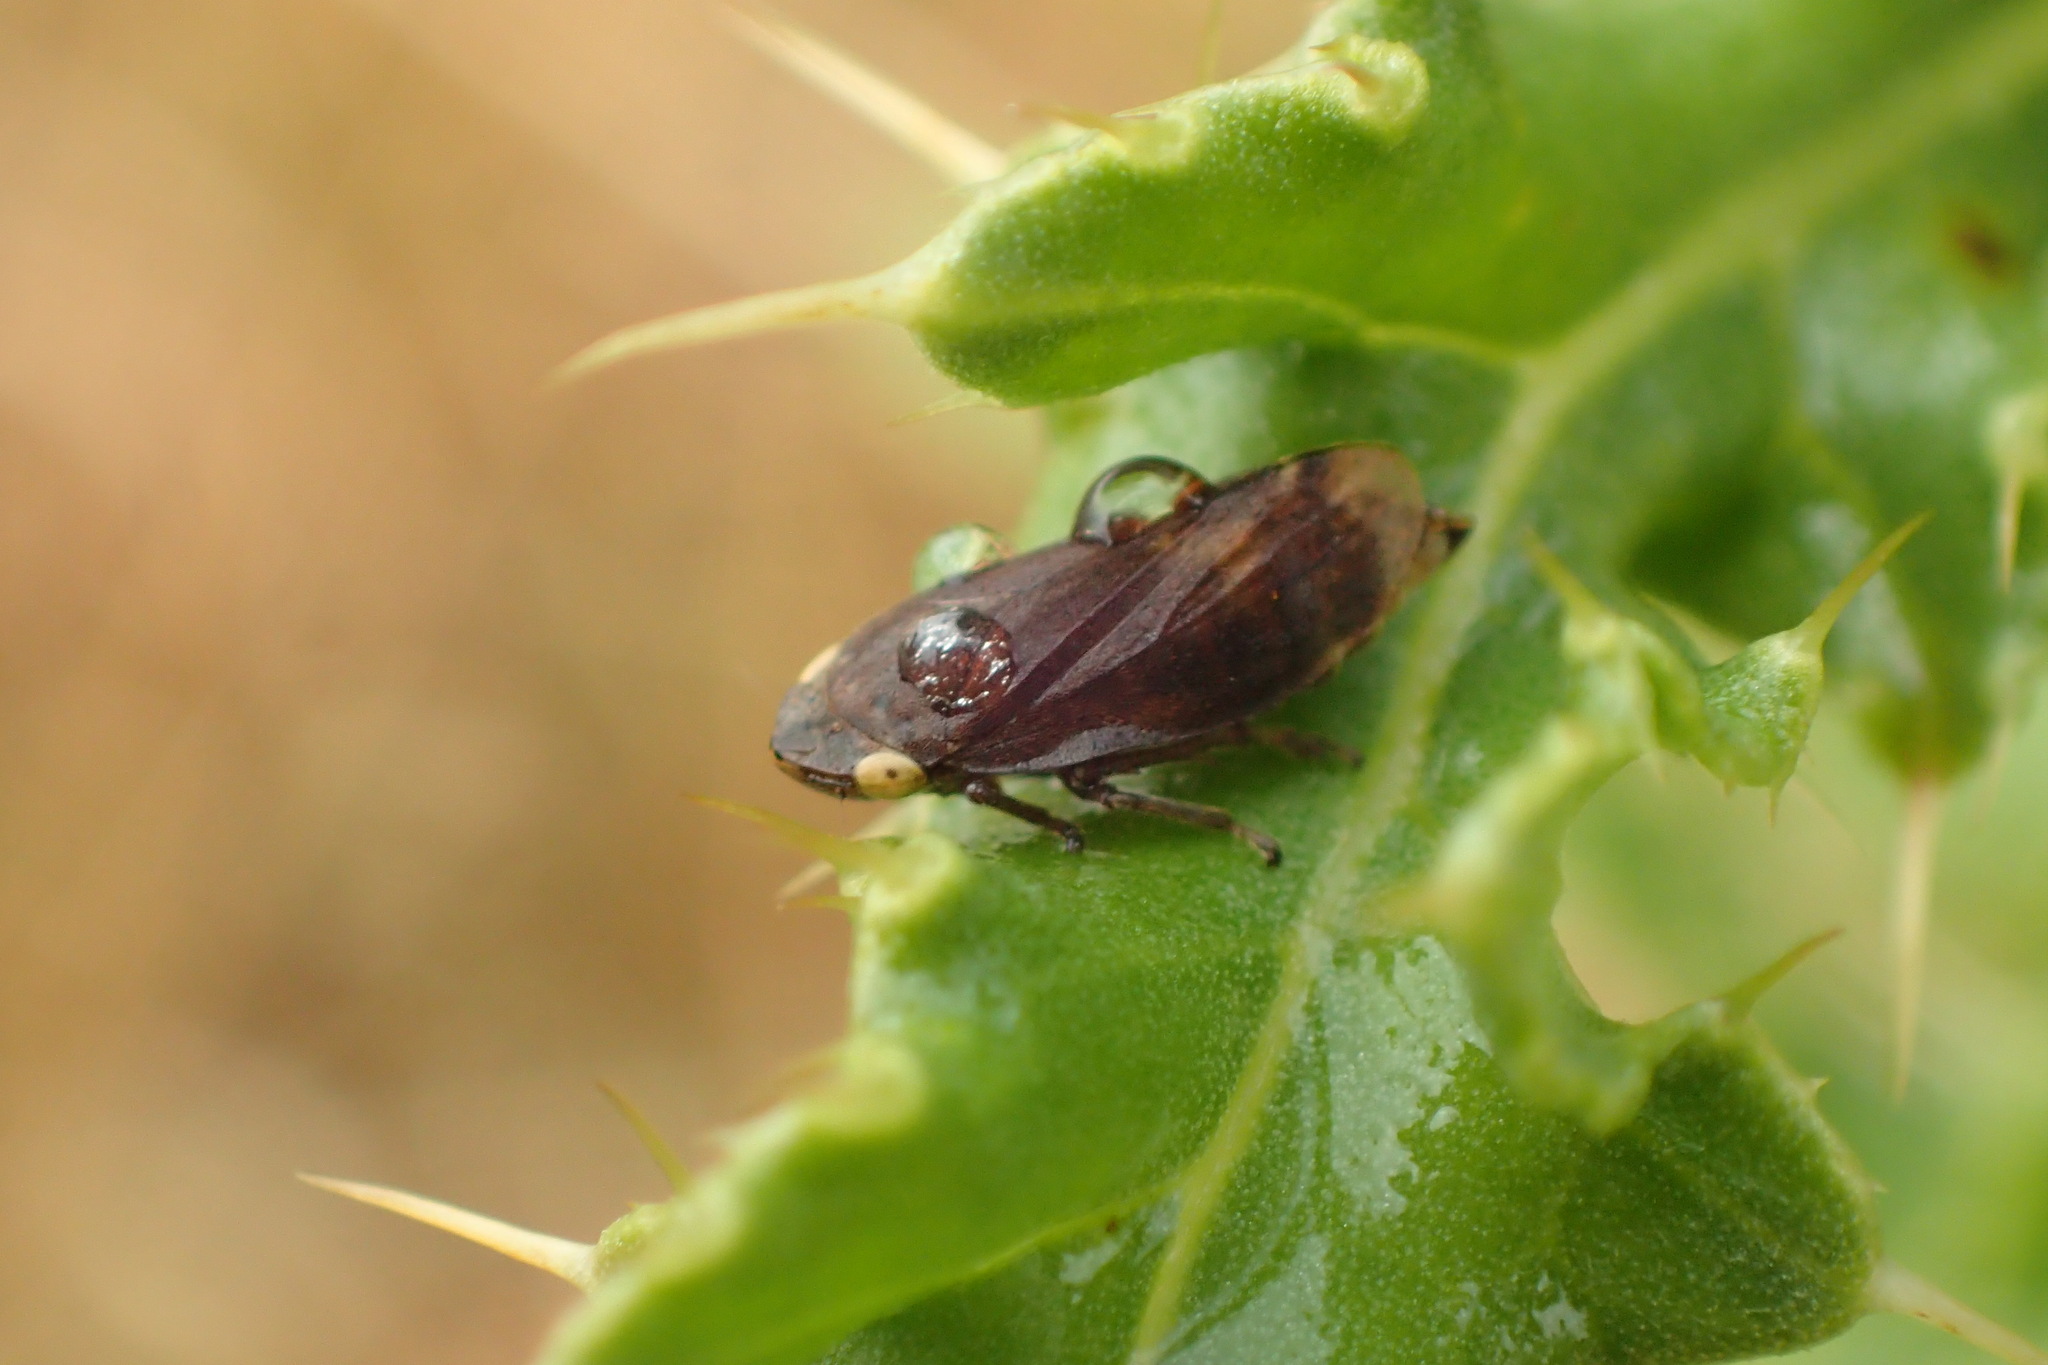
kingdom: Animalia
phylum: Arthropoda
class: Insecta
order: Hemiptera
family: Aphrophoridae
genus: Philaenus
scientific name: Philaenus spumarius
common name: Meadow spittlebug
